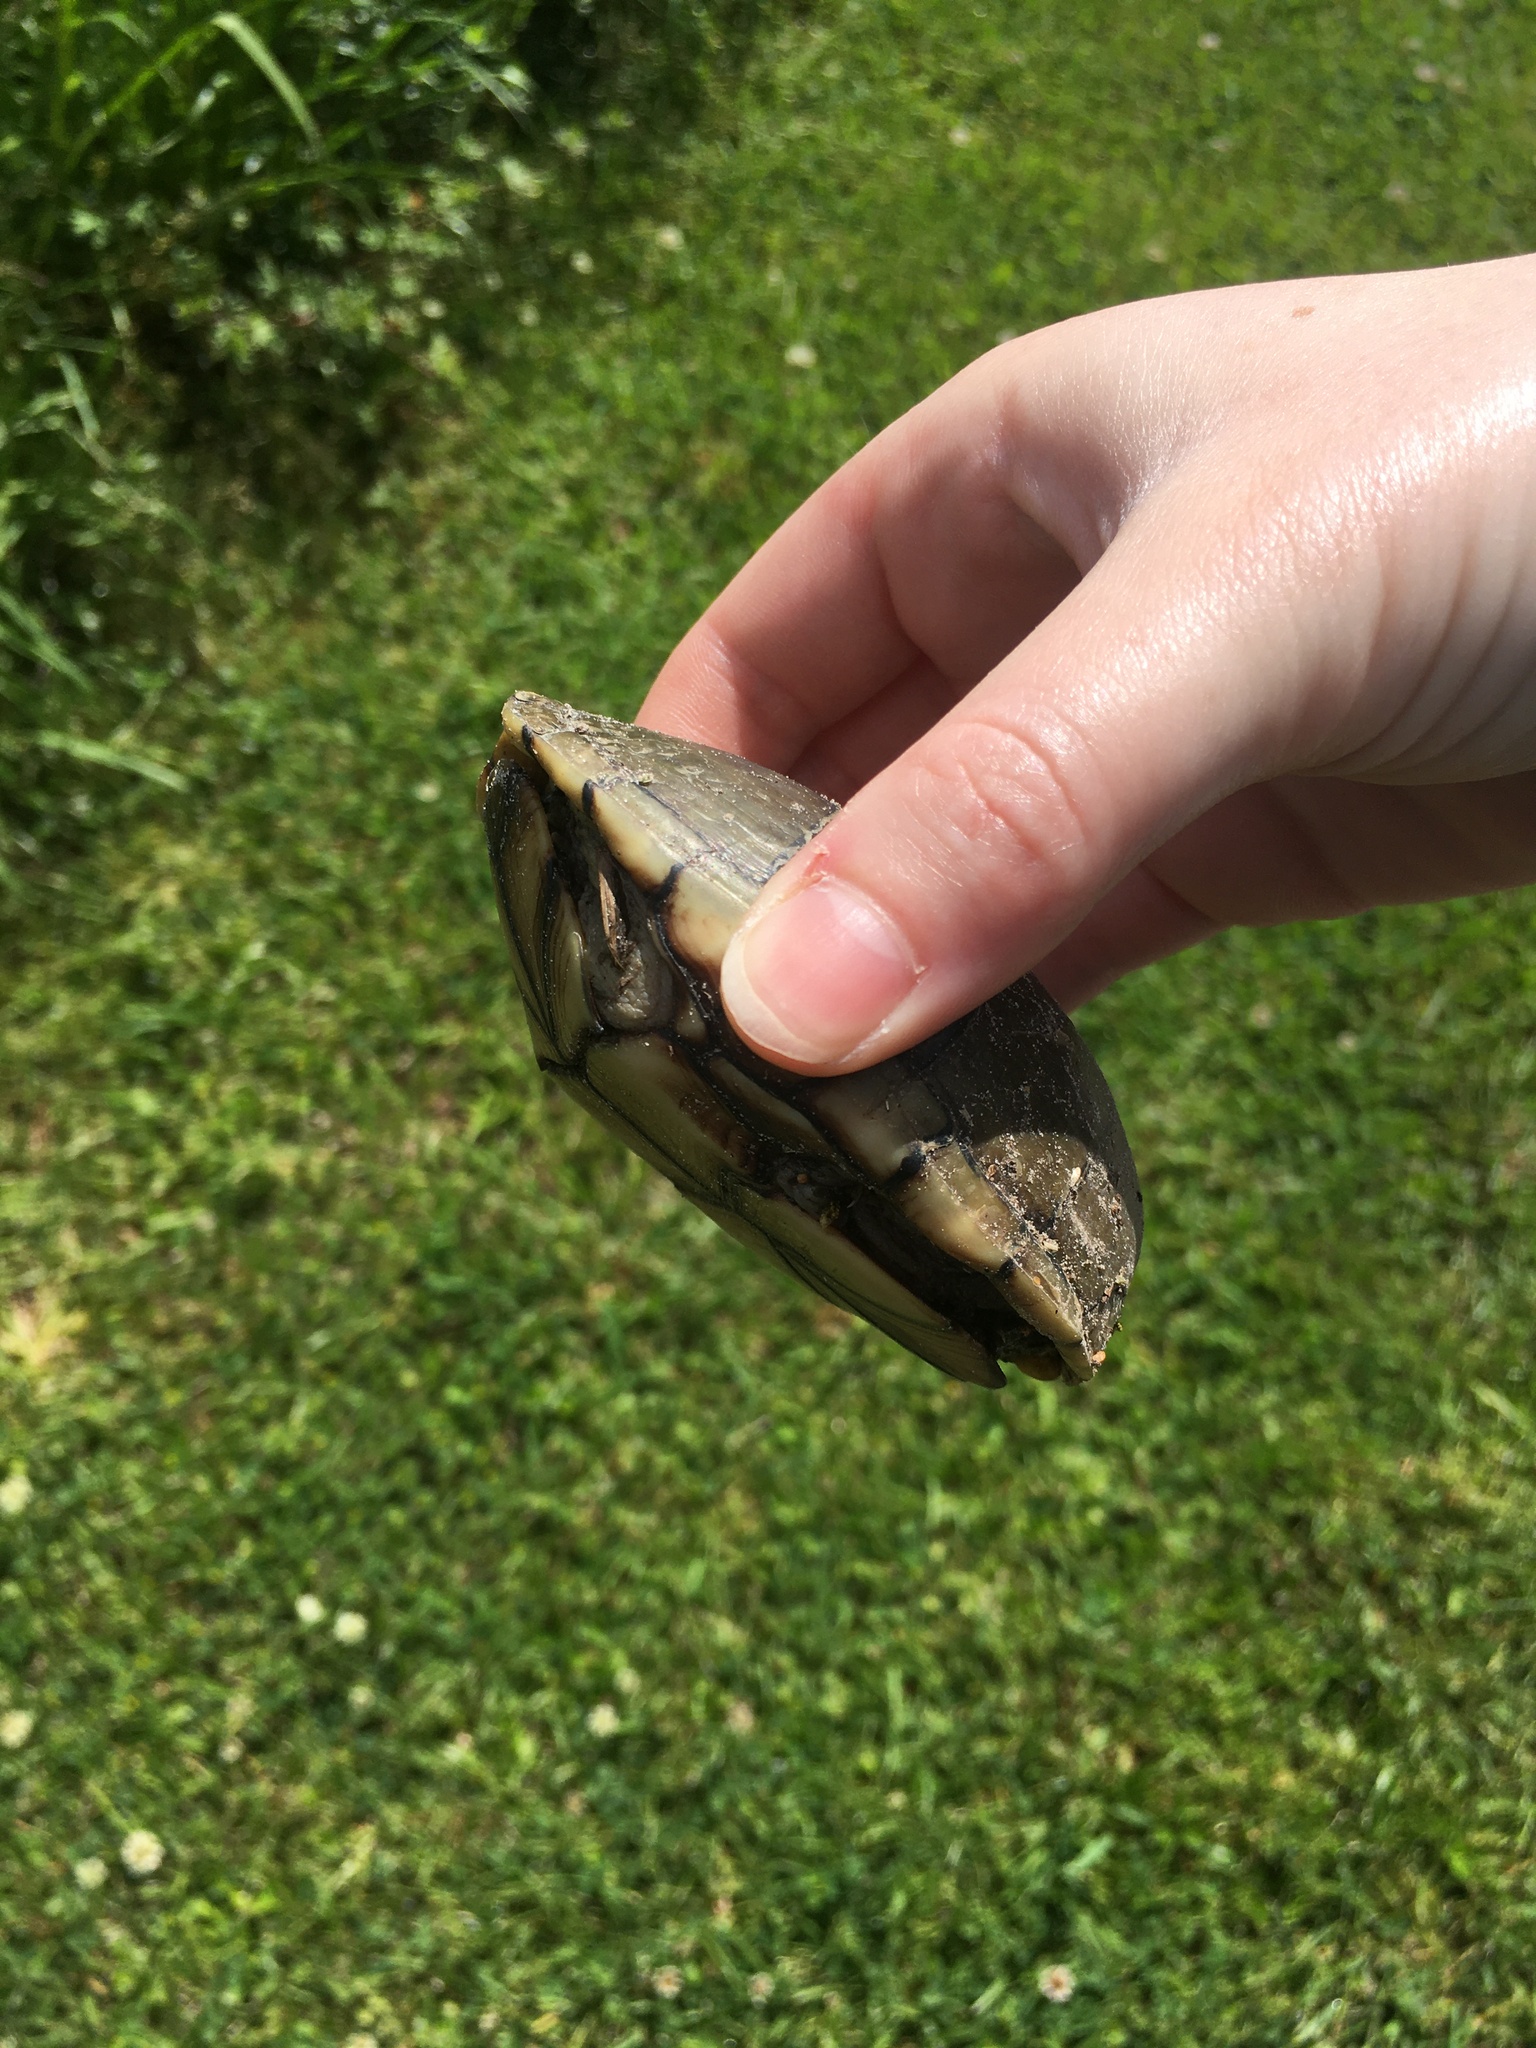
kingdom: Animalia
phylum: Chordata
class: Testudines
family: Kinosternidae
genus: Kinosternon
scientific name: Kinosternon subrubrum
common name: Eastern mud turtle
